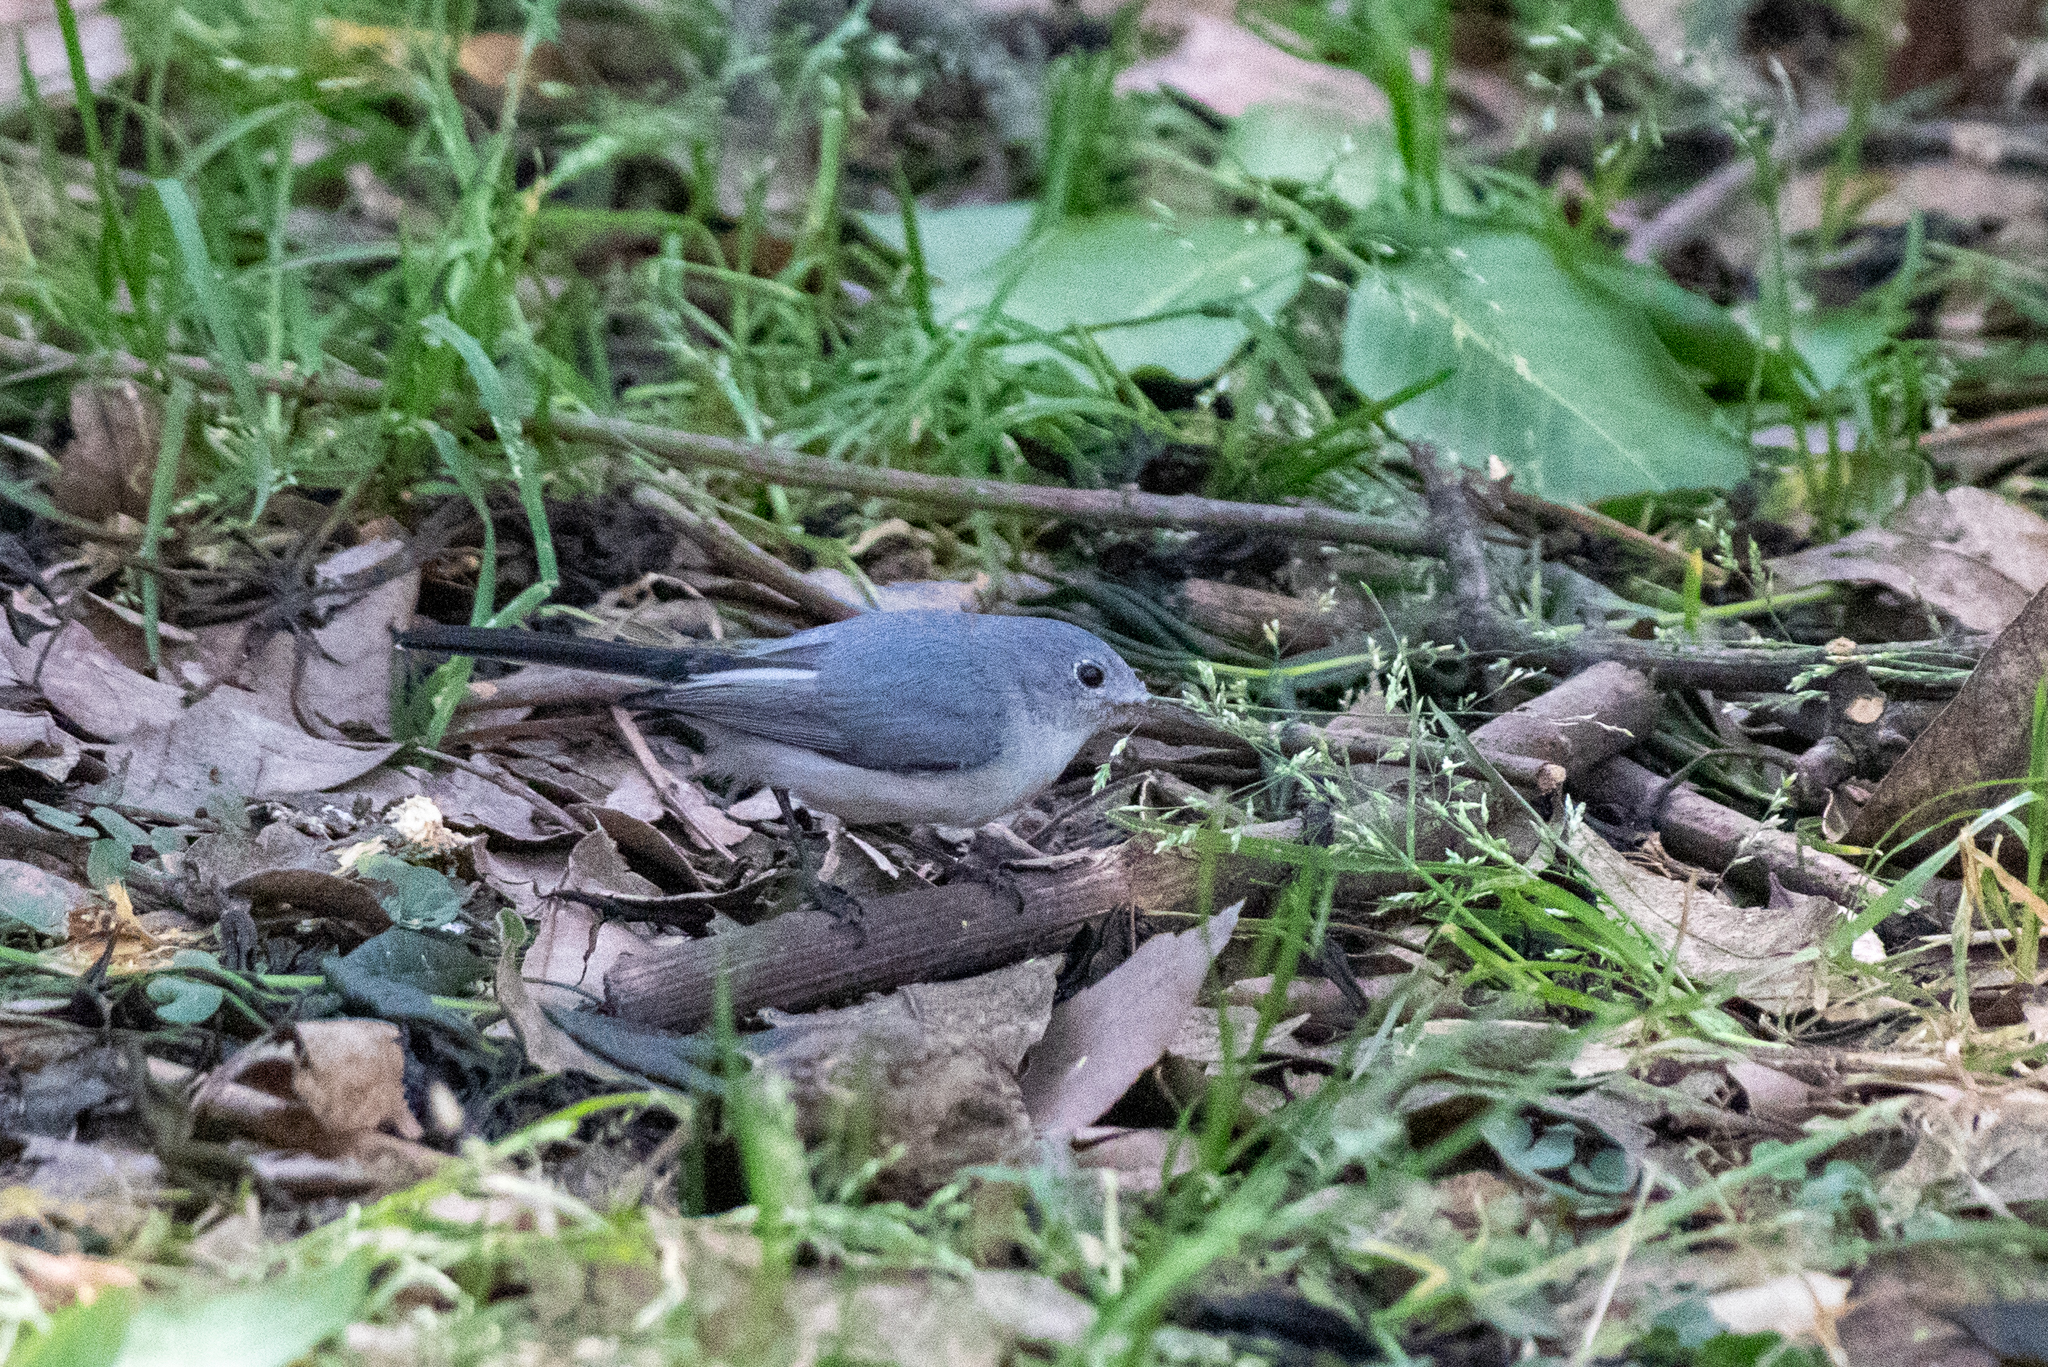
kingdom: Animalia
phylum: Chordata
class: Aves
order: Passeriformes
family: Polioptilidae
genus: Polioptila
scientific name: Polioptila caerulea
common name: Blue-gray gnatcatcher
